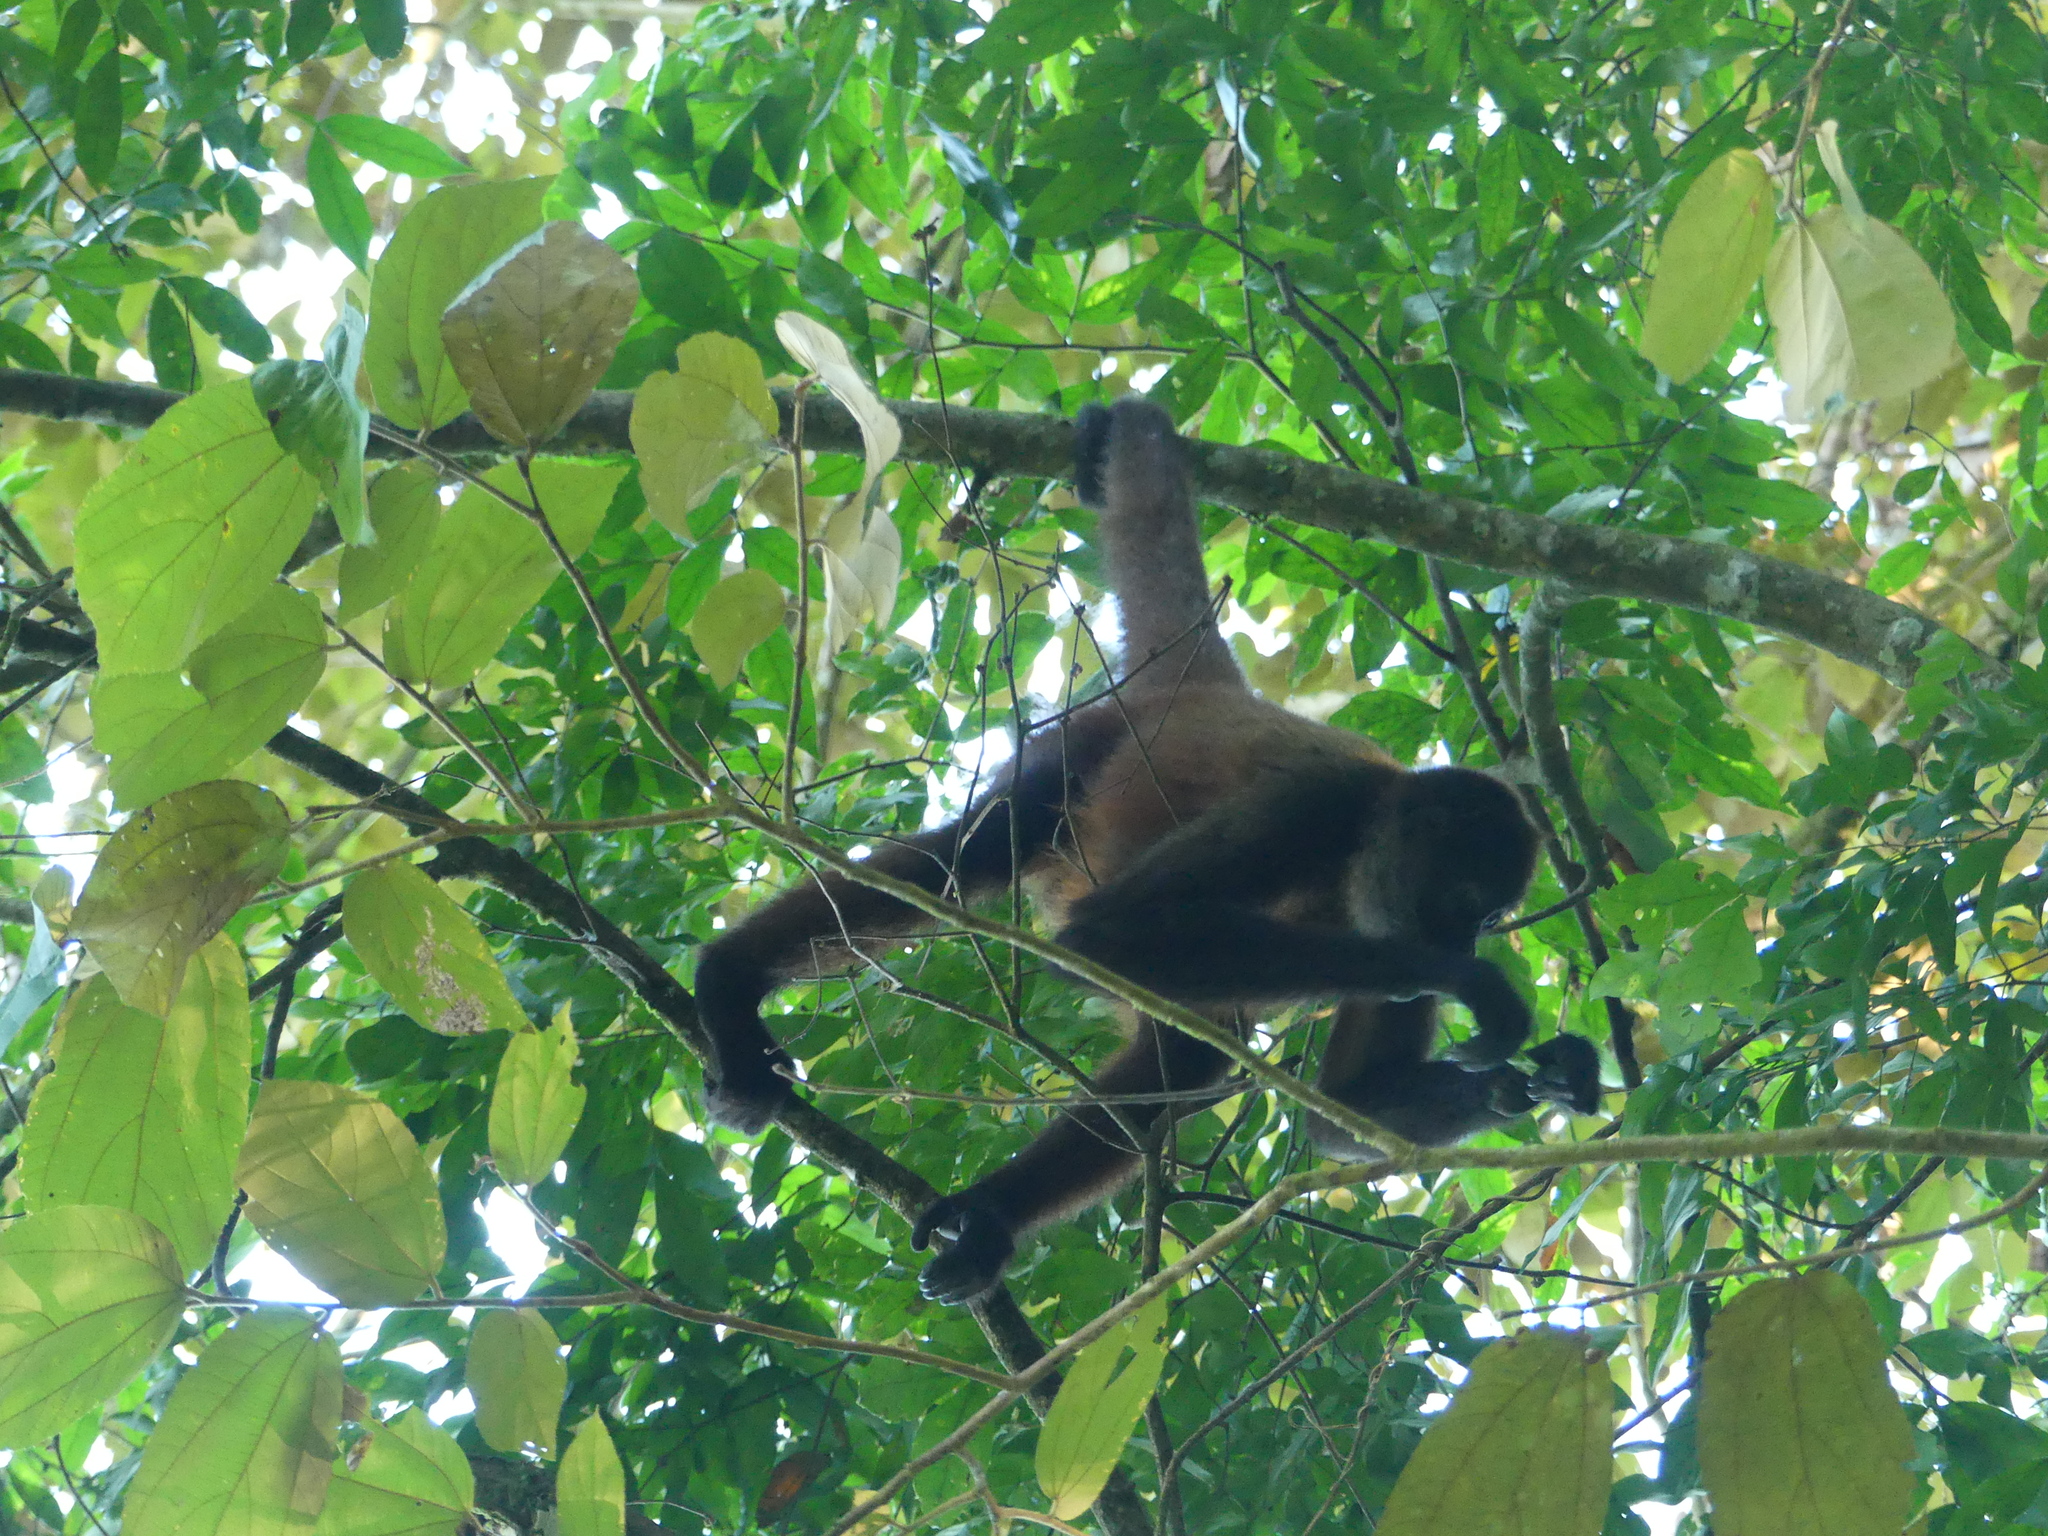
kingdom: Animalia
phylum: Chordata
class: Mammalia
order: Primates
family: Atelidae
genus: Ateles
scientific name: Ateles geoffroyi
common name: Black-handed spider monkey
